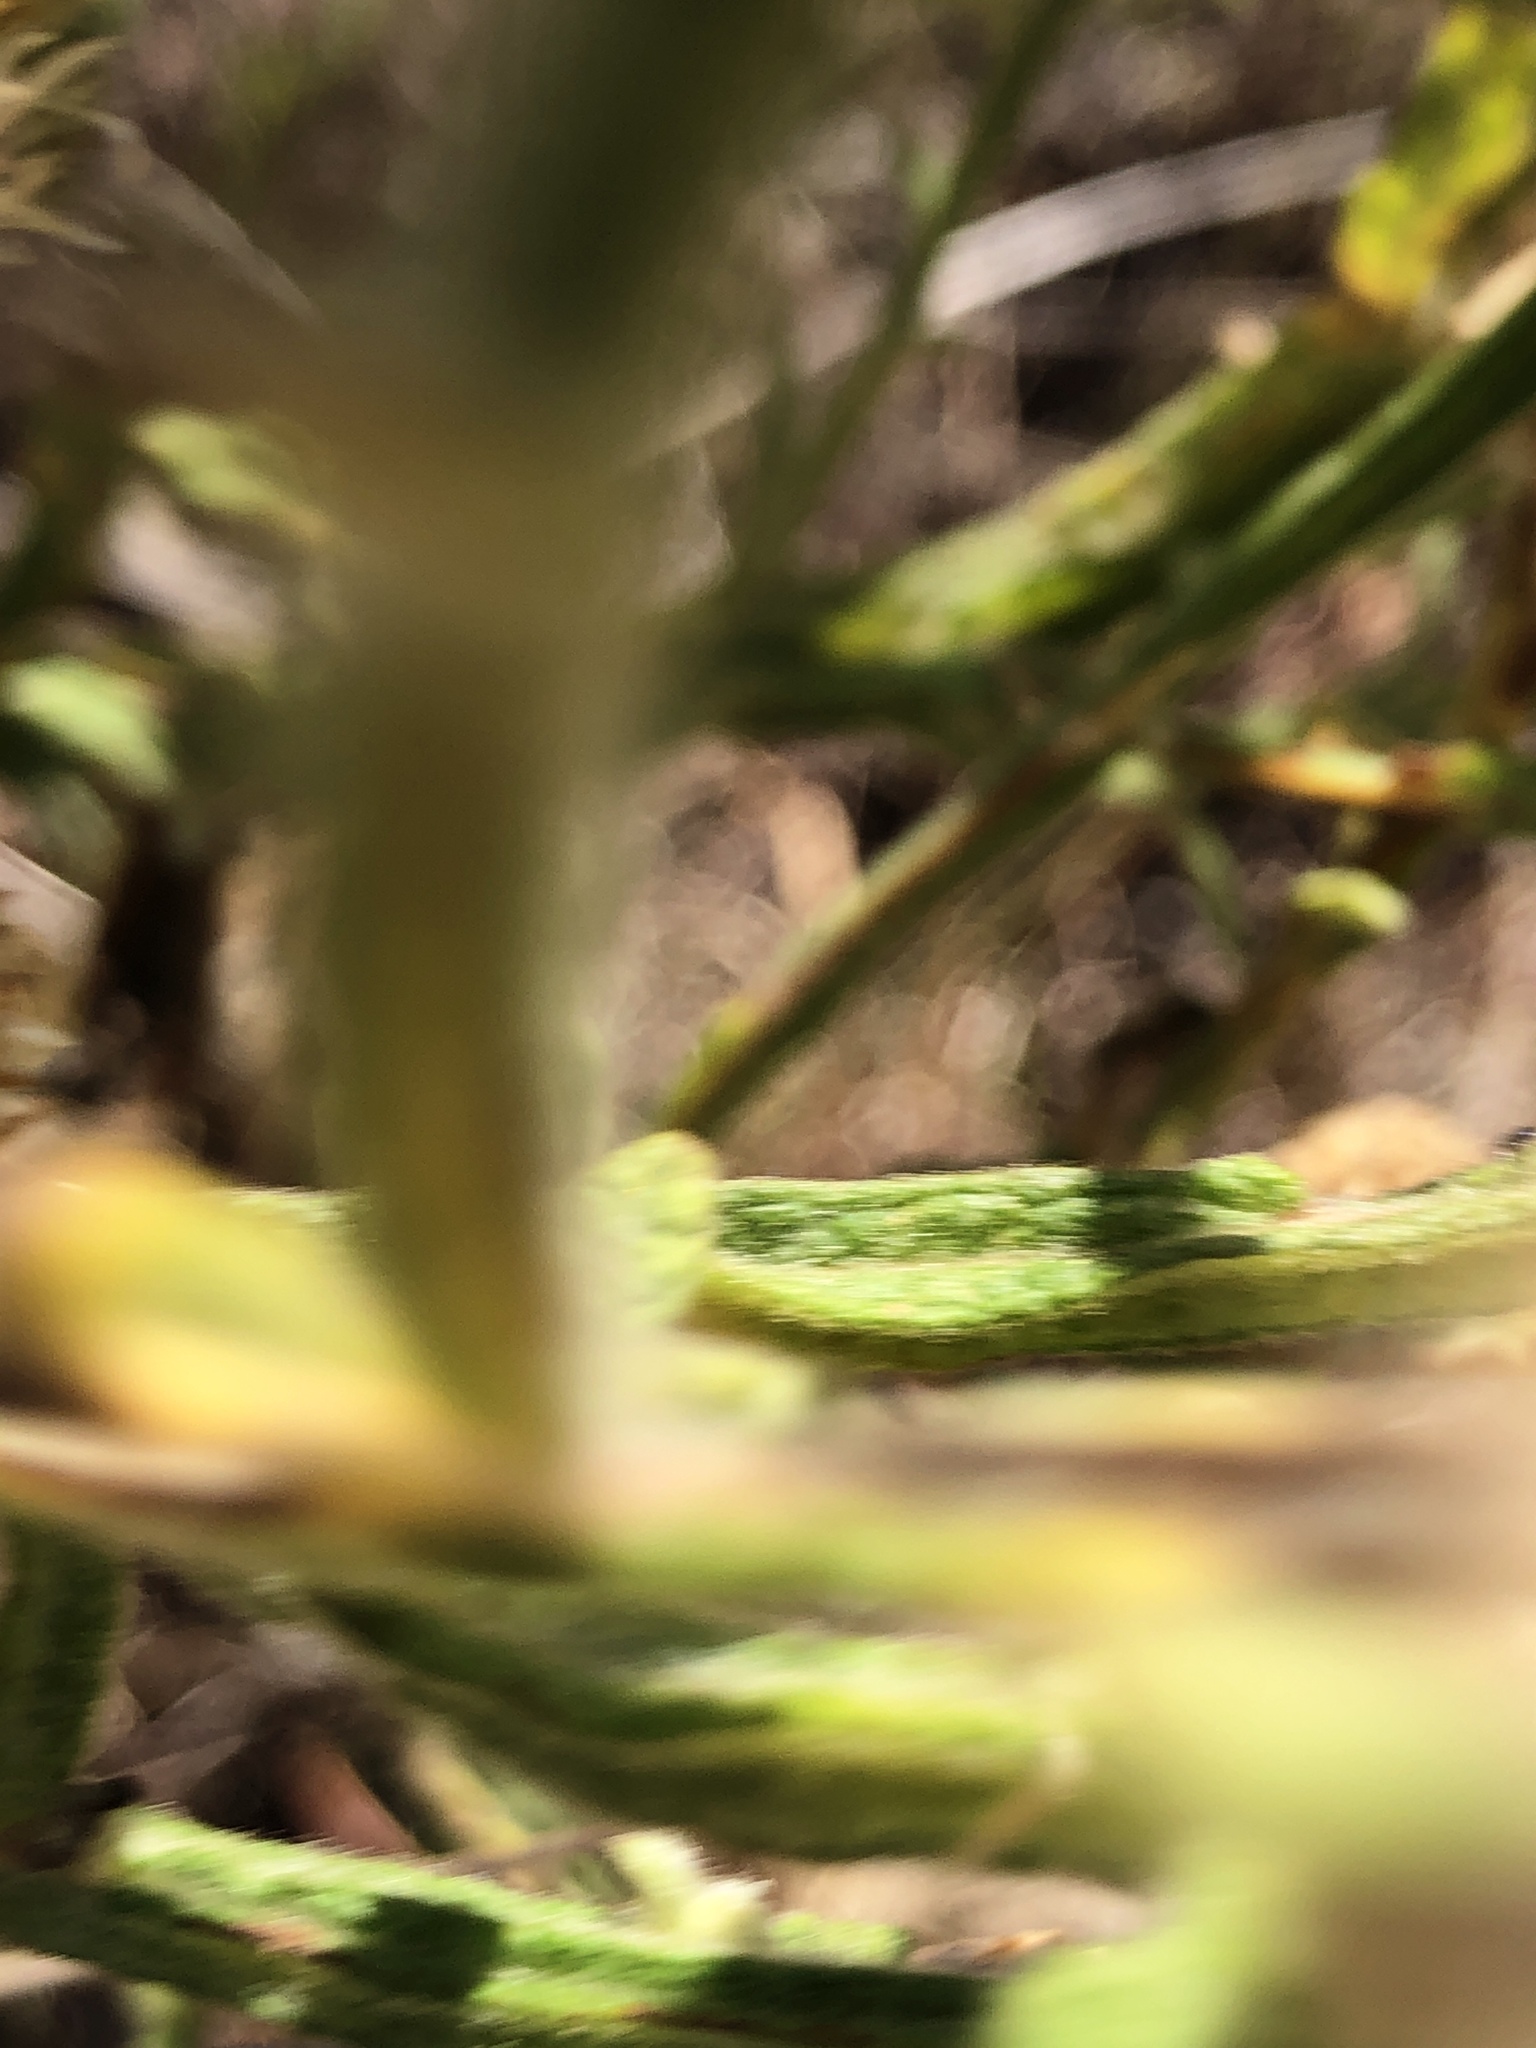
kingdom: Plantae
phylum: Tracheophyta
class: Magnoliopsida
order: Asterales
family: Asteraceae
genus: Pterocaulon
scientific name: Pterocaulon sphacelatum
